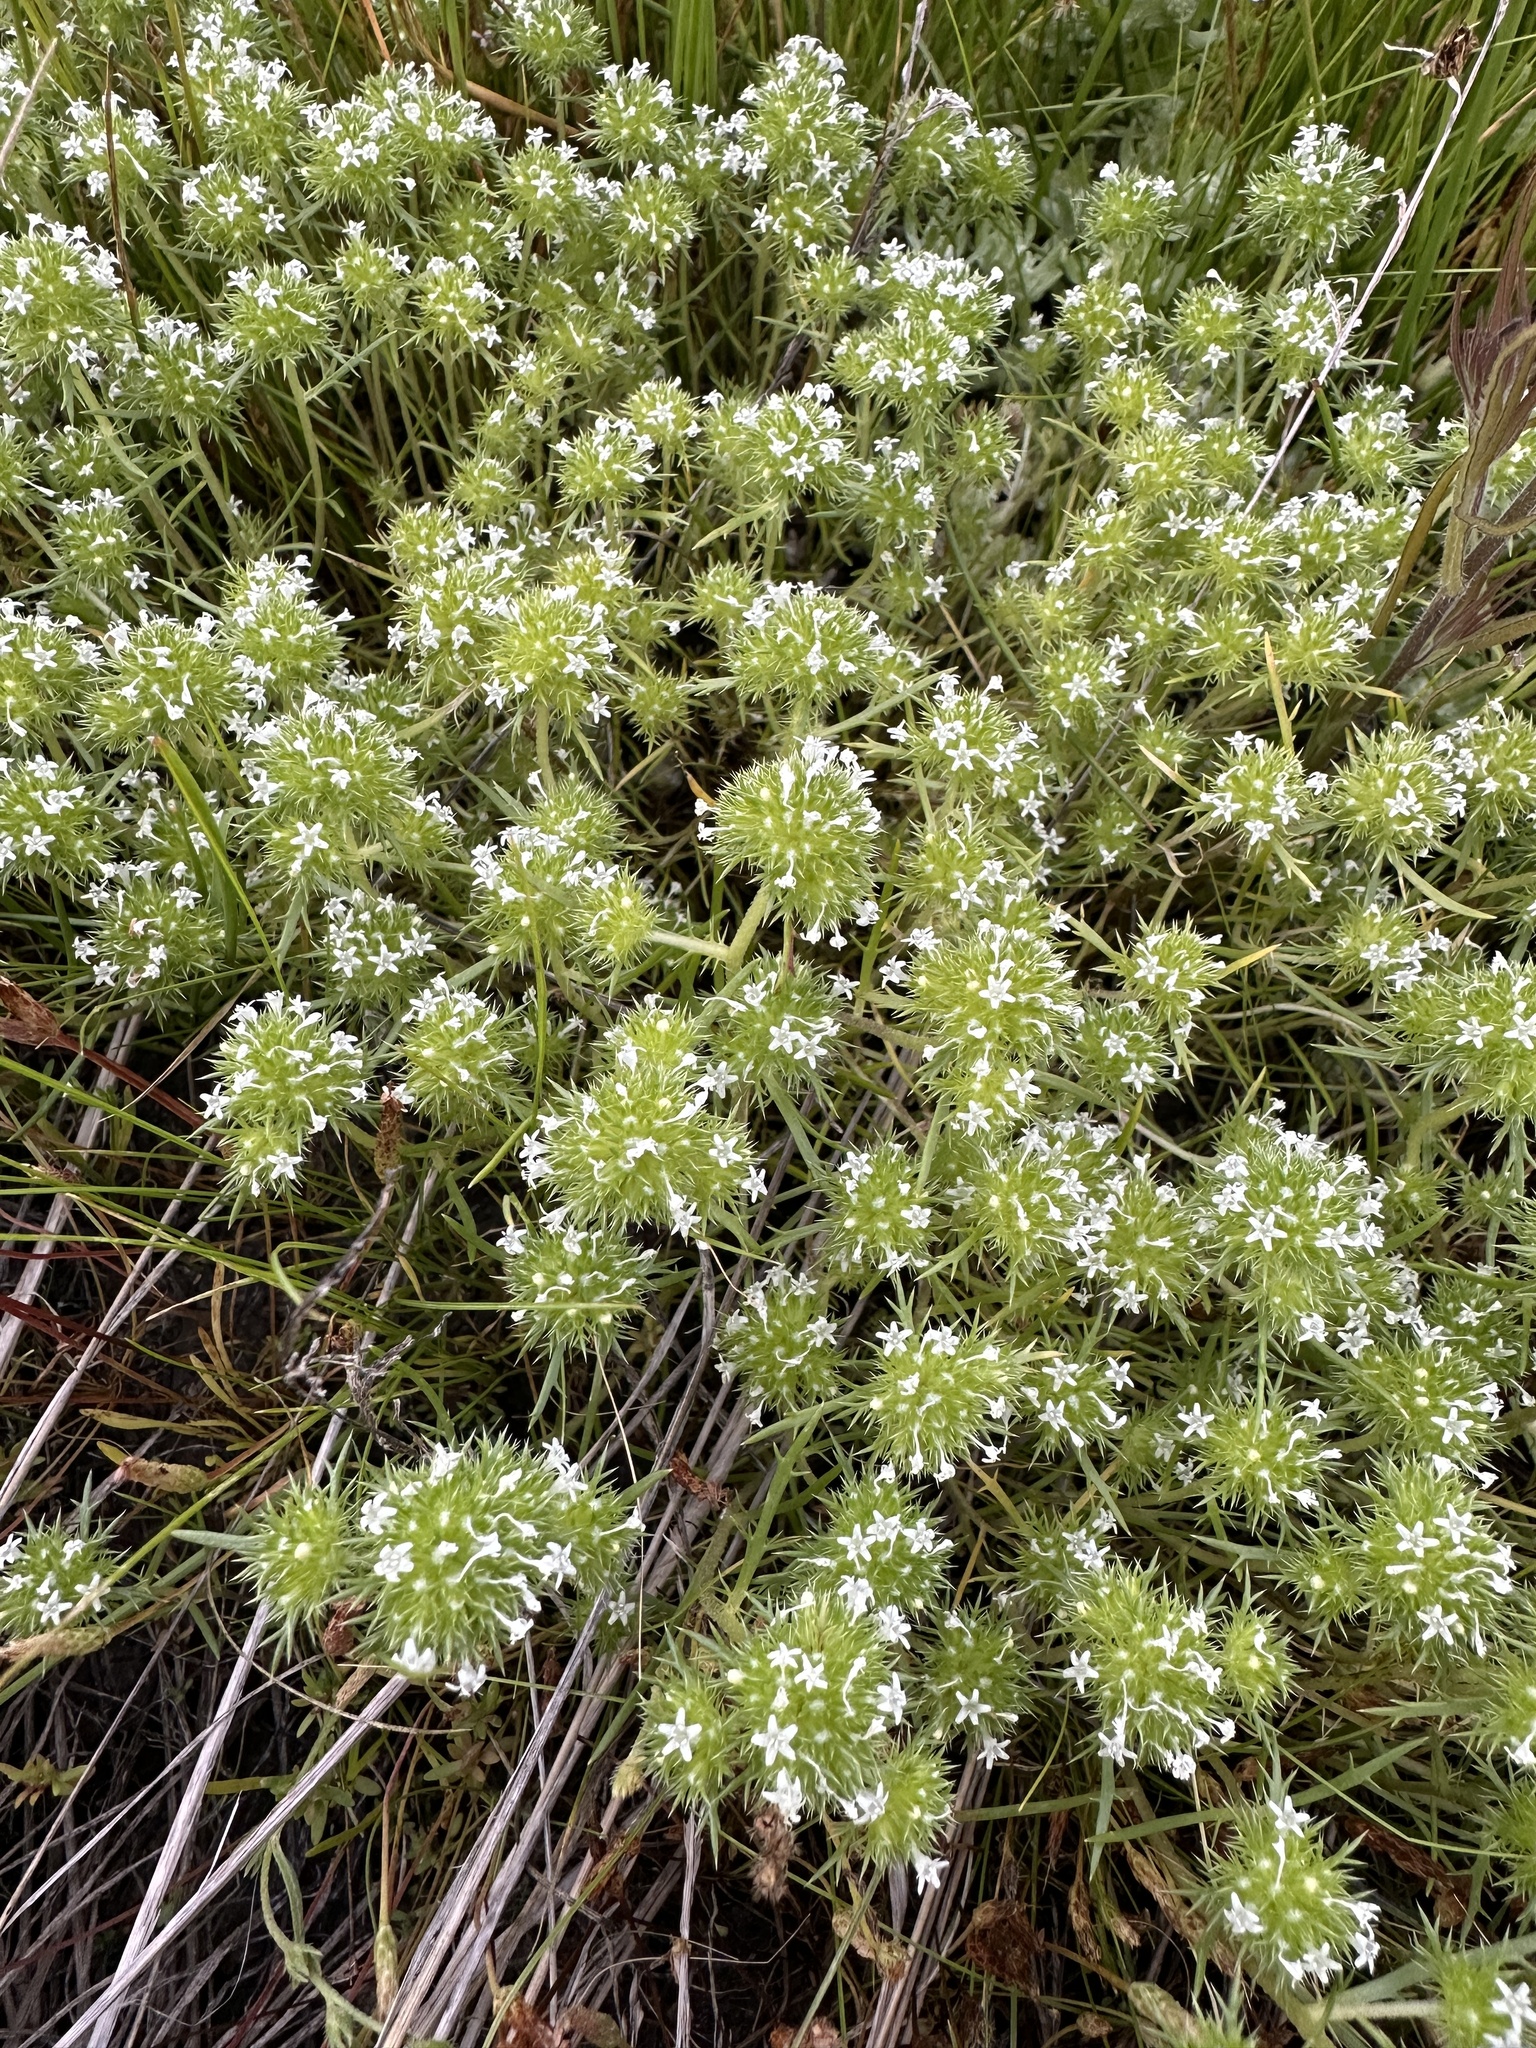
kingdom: Plantae
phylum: Tracheophyta
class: Magnoliopsida
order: Ericales
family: Polemoniaceae
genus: Navarretia
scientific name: Navarretia leucocephala
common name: White-flowered navarretia
